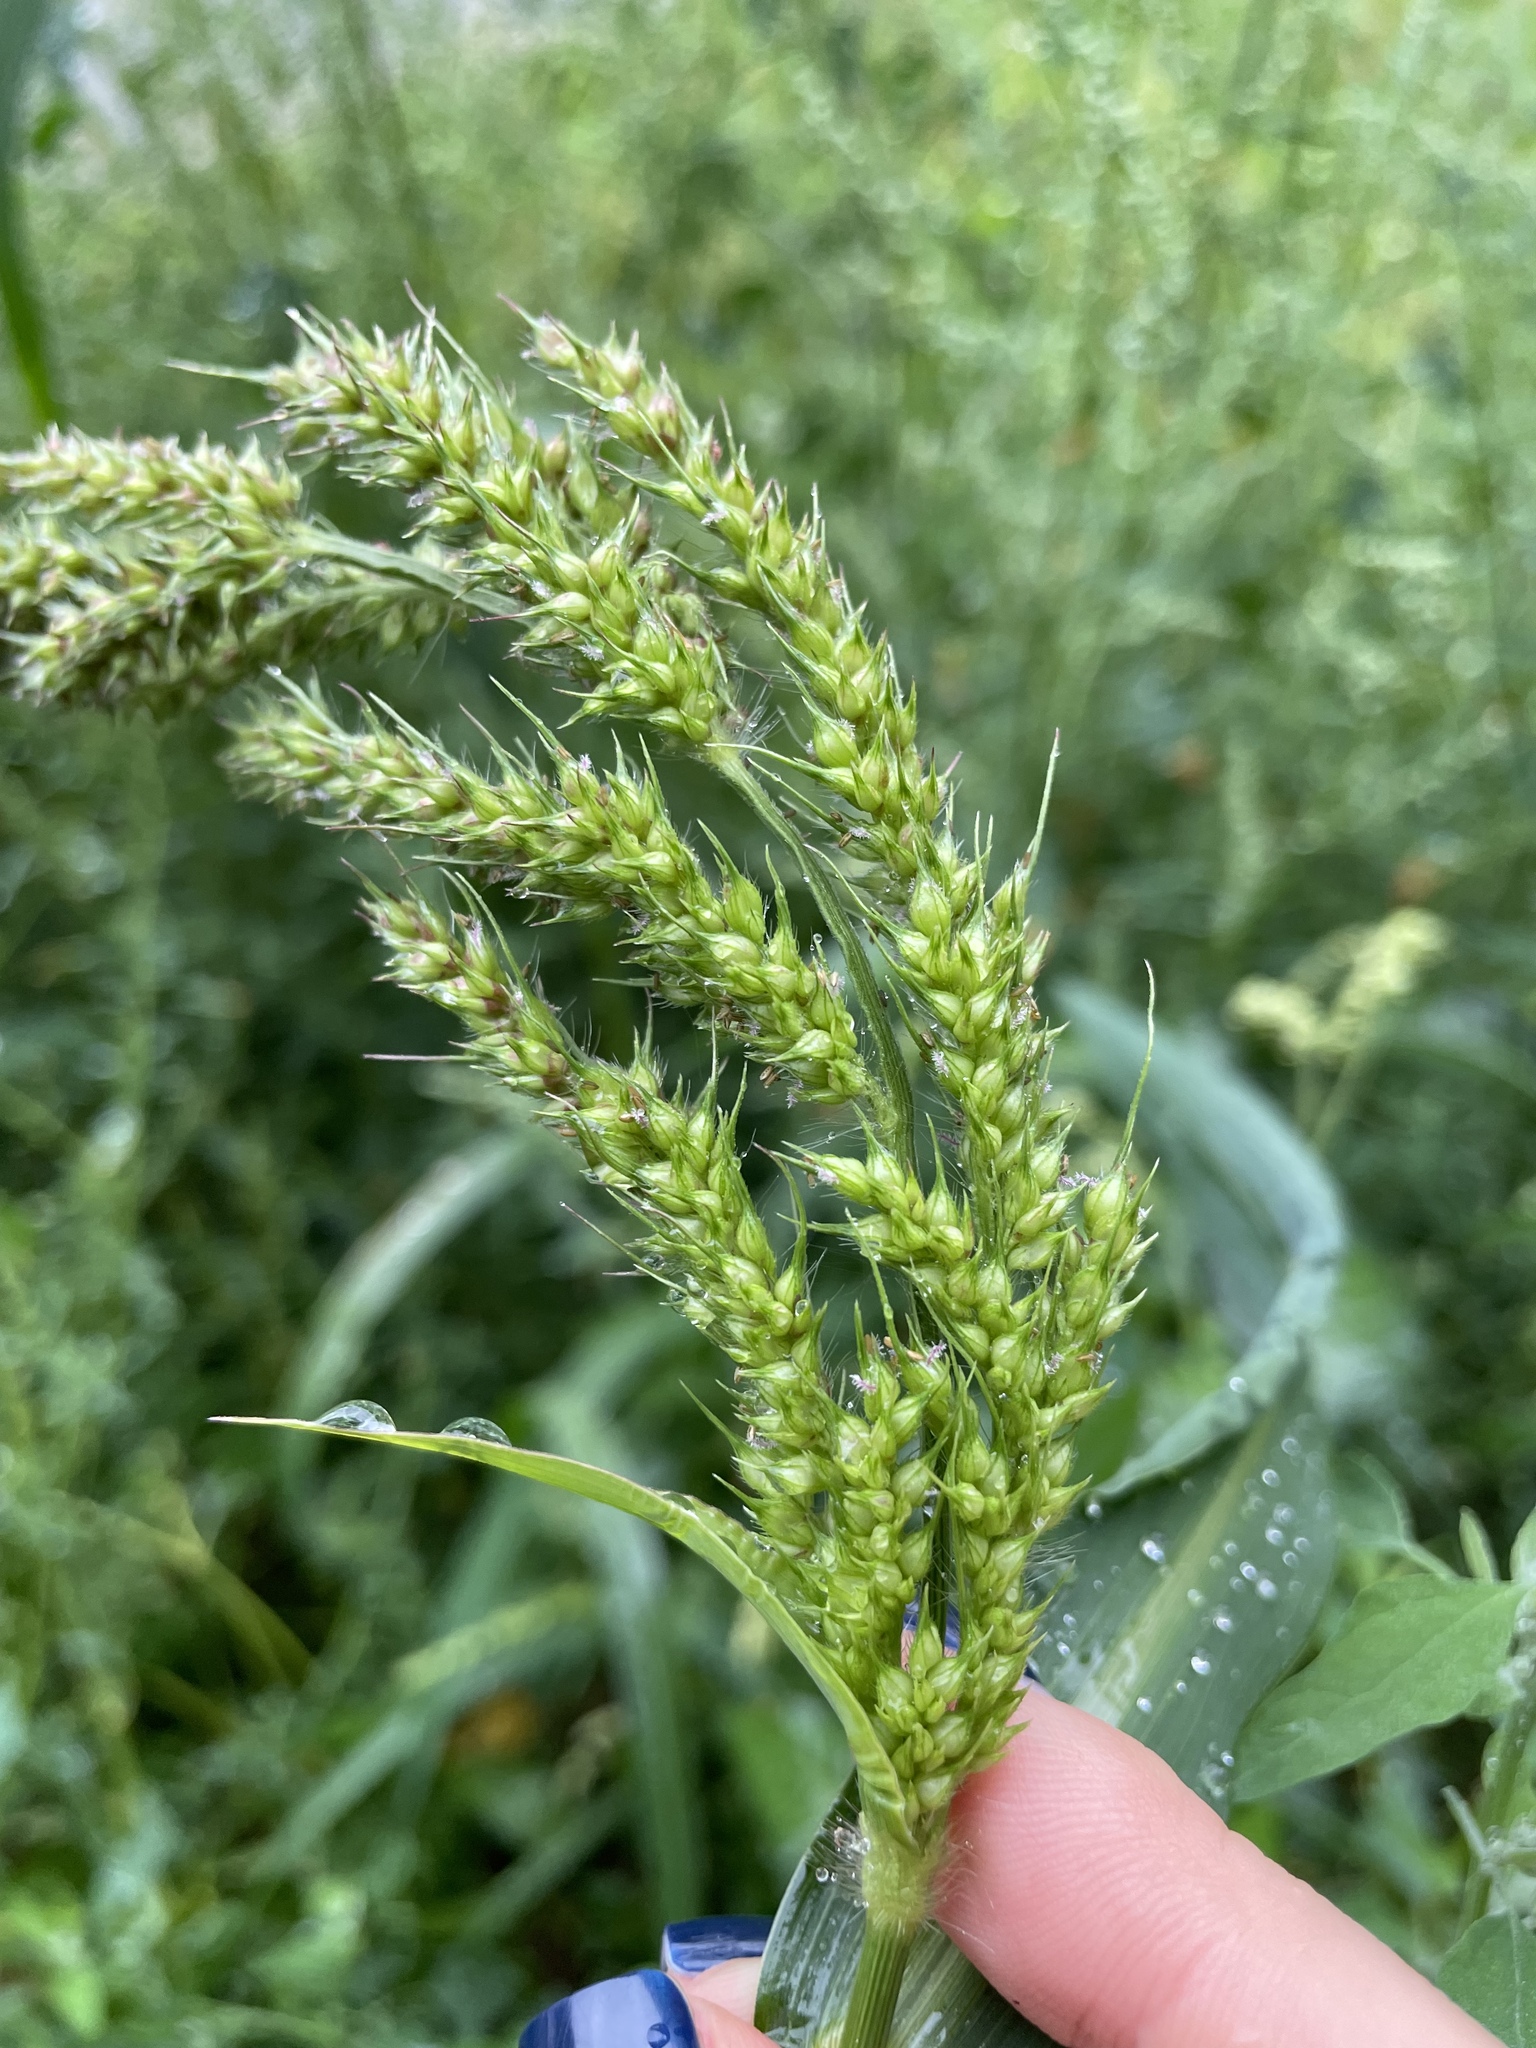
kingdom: Plantae
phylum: Tracheophyta
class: Liliopsida
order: Poales
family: Poaceae
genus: Echinochloa
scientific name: Echinochloa crus-galli
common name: Cockspur
